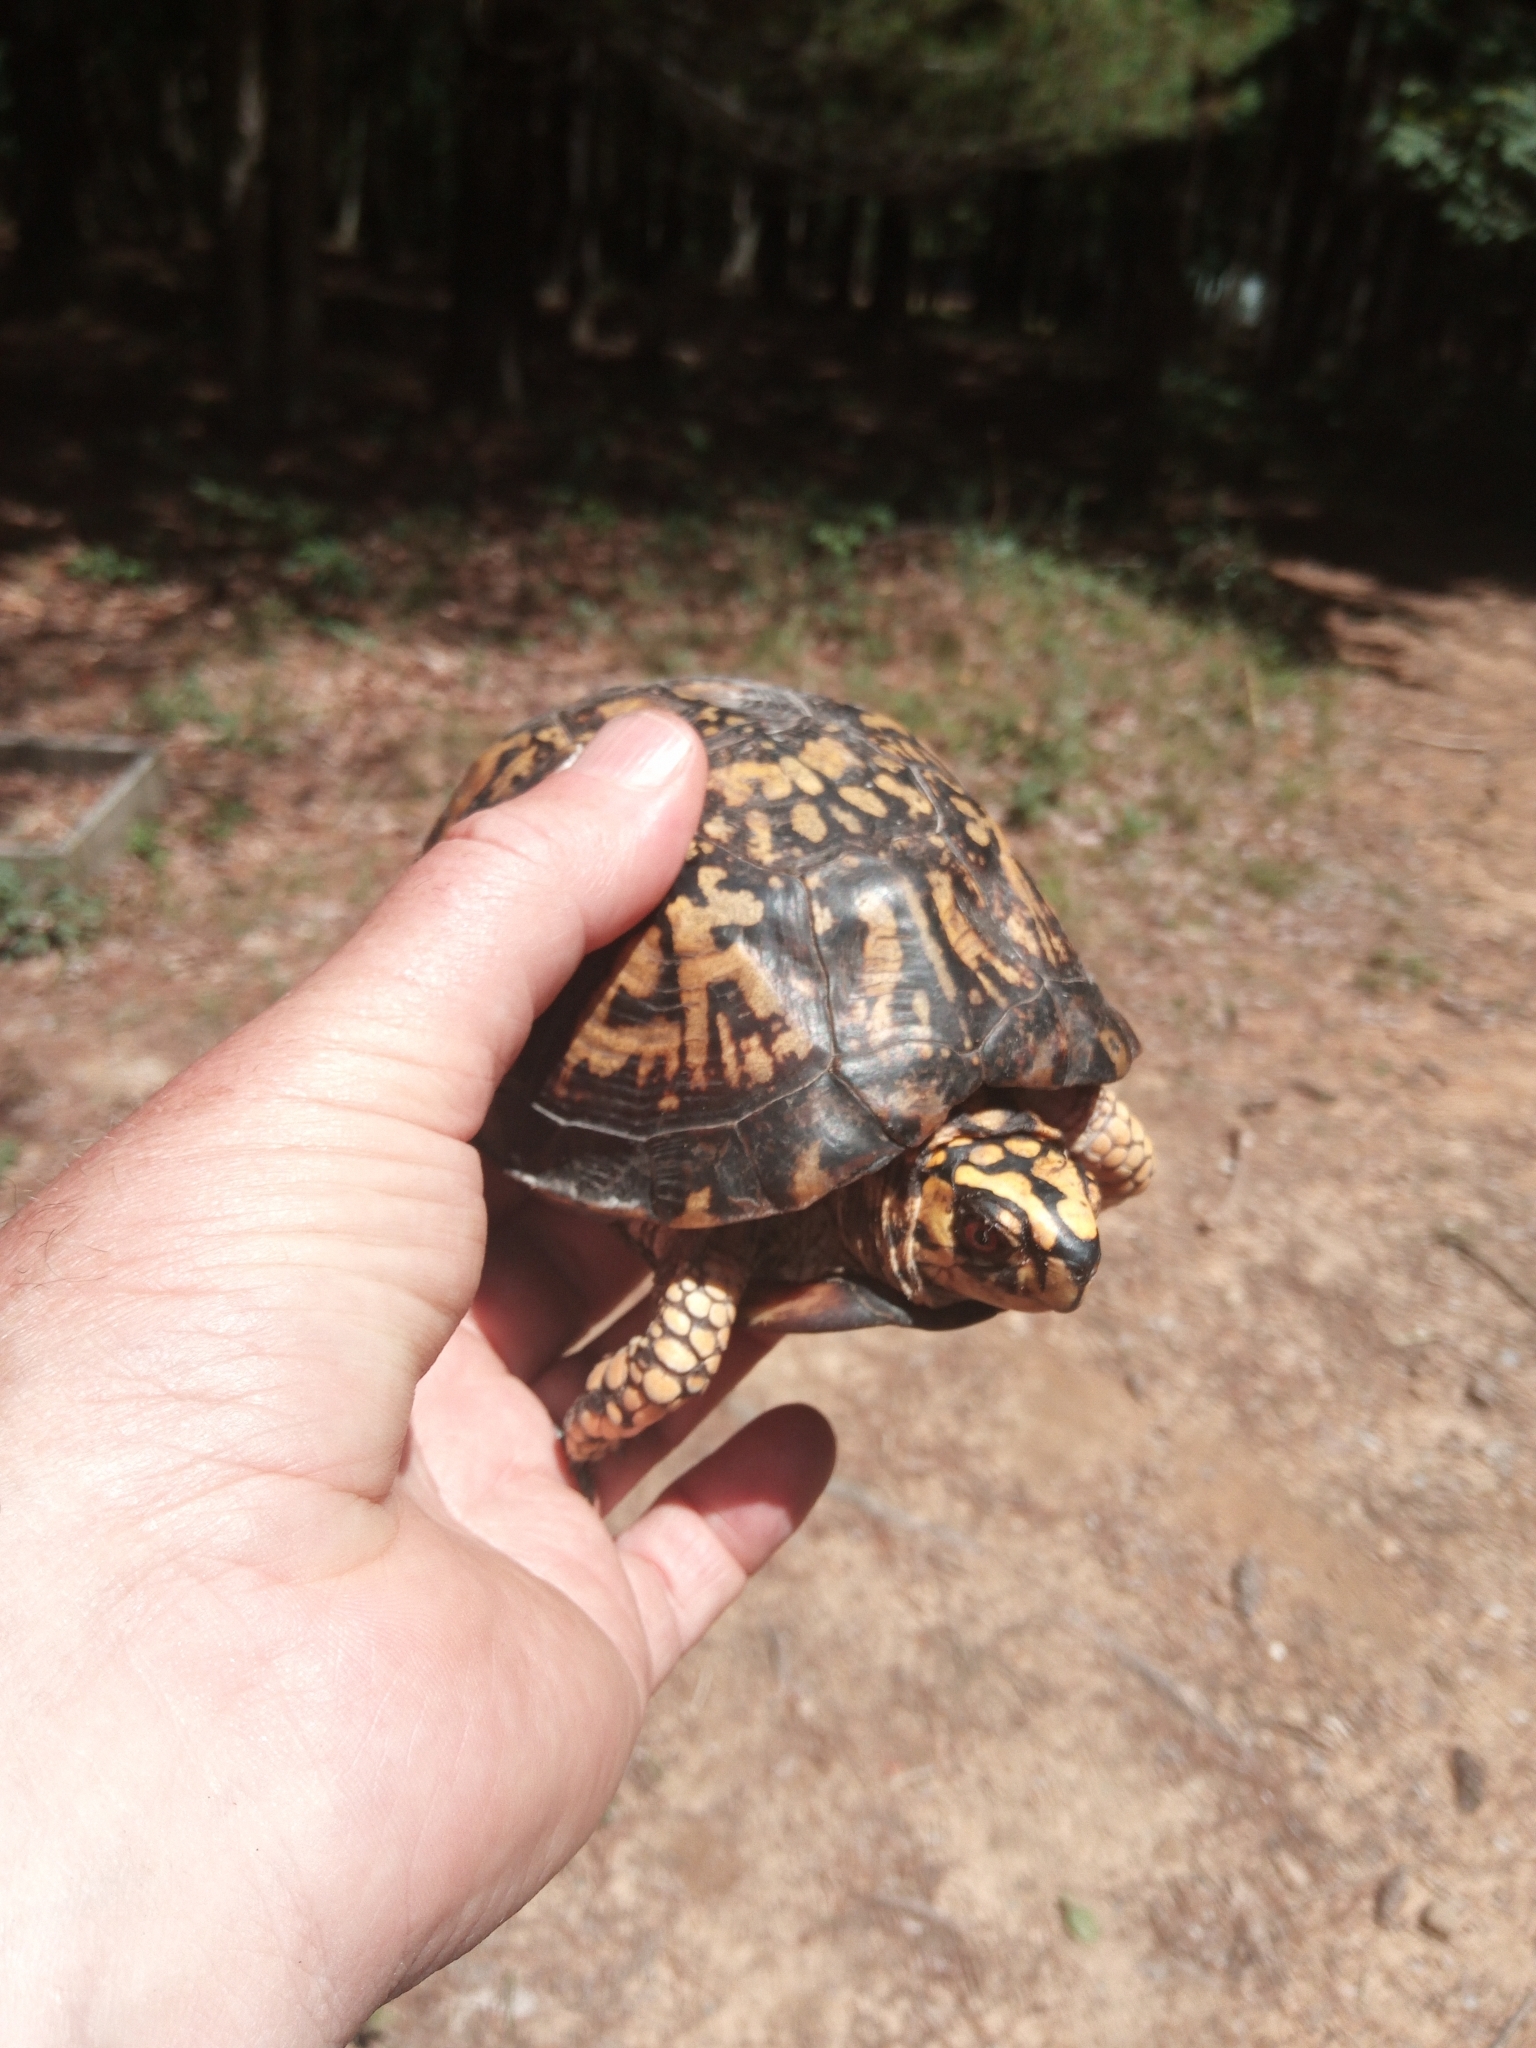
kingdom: Animalia
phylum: Chordata
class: Testudines
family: Emydidae
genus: Terrapene
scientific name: Terrapene carolina
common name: Common box turtle
